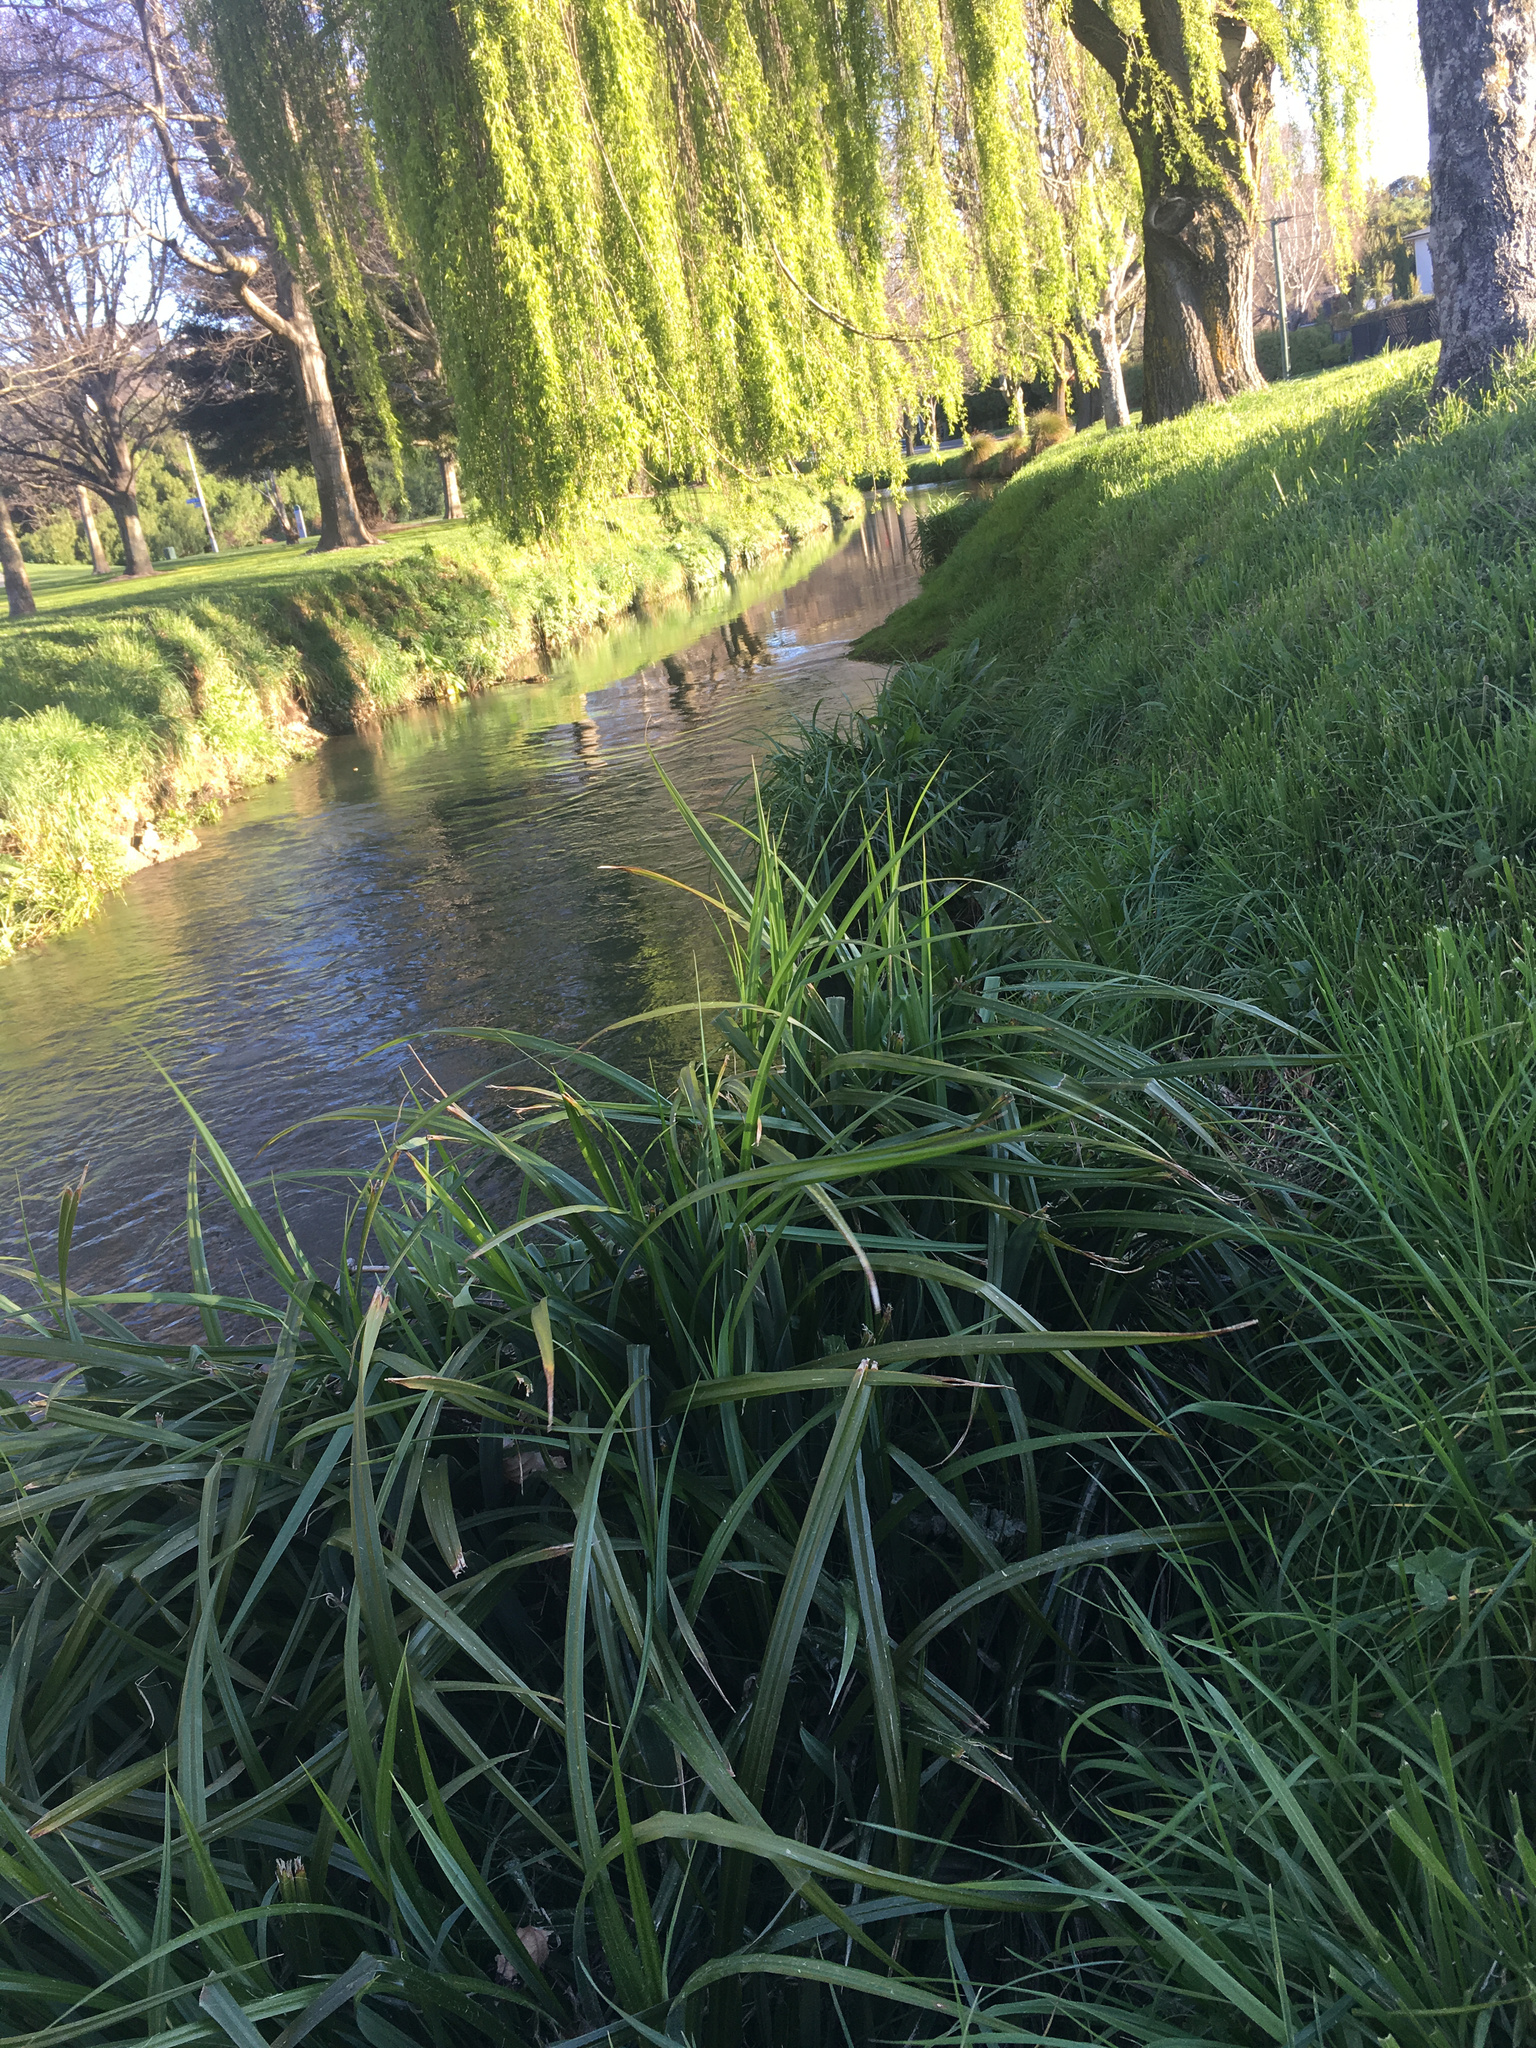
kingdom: Plantae
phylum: Tracheophyta
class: Liliopsida
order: Poales
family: Cyperaceae
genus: Carex
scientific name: Carex pendula
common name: Pendulous sedge
